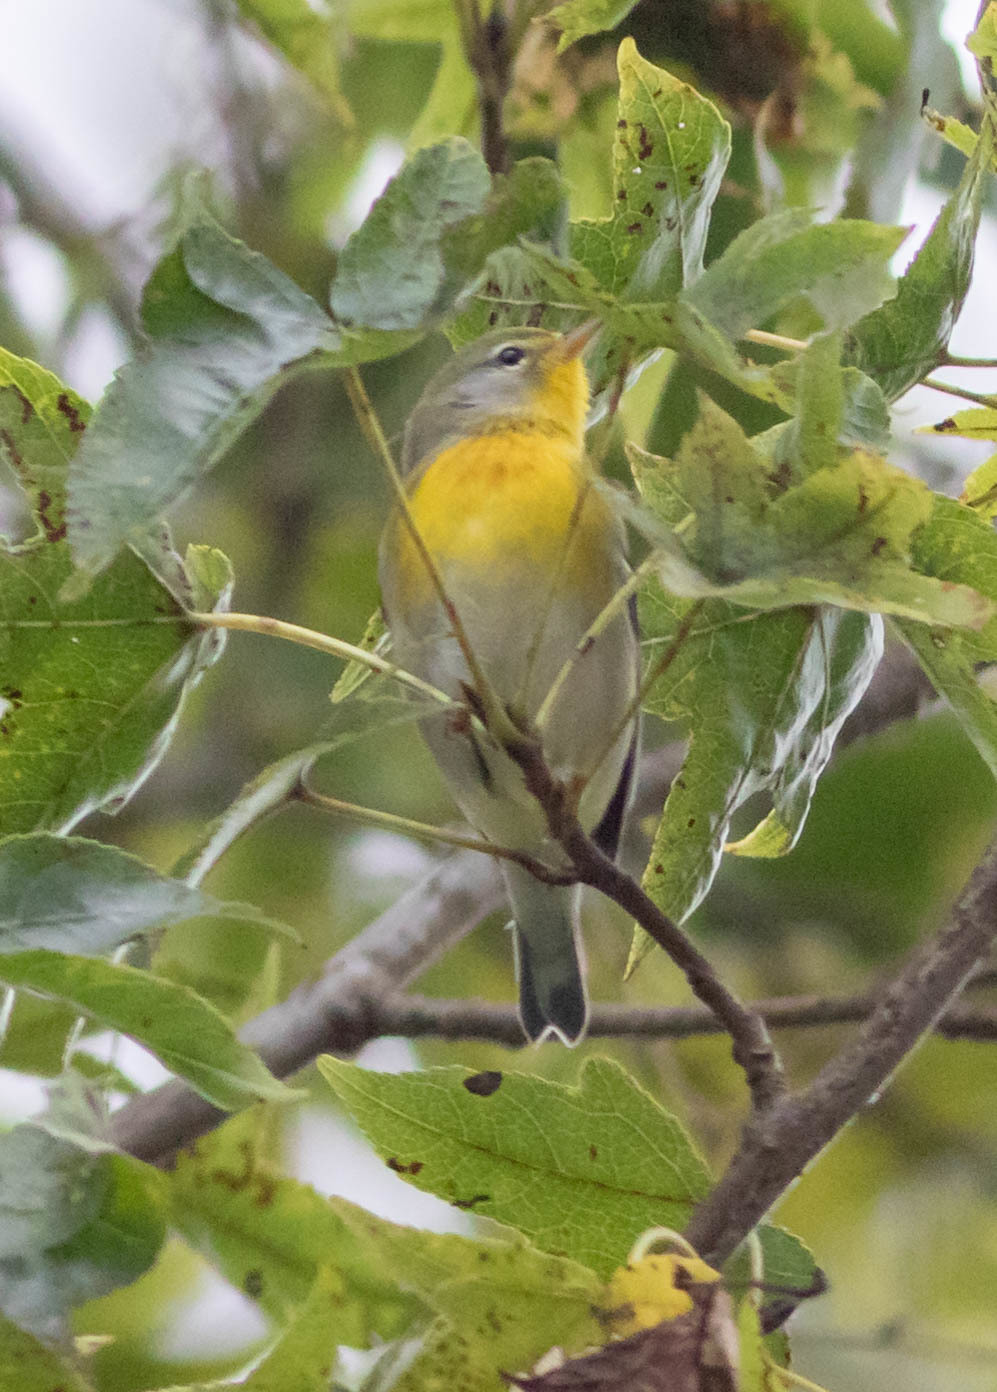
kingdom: Animalia
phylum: Chordata
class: Aves
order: Passeriformes
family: Parulidae
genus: Setophaga
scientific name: Setophaga americana
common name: Northern parula
